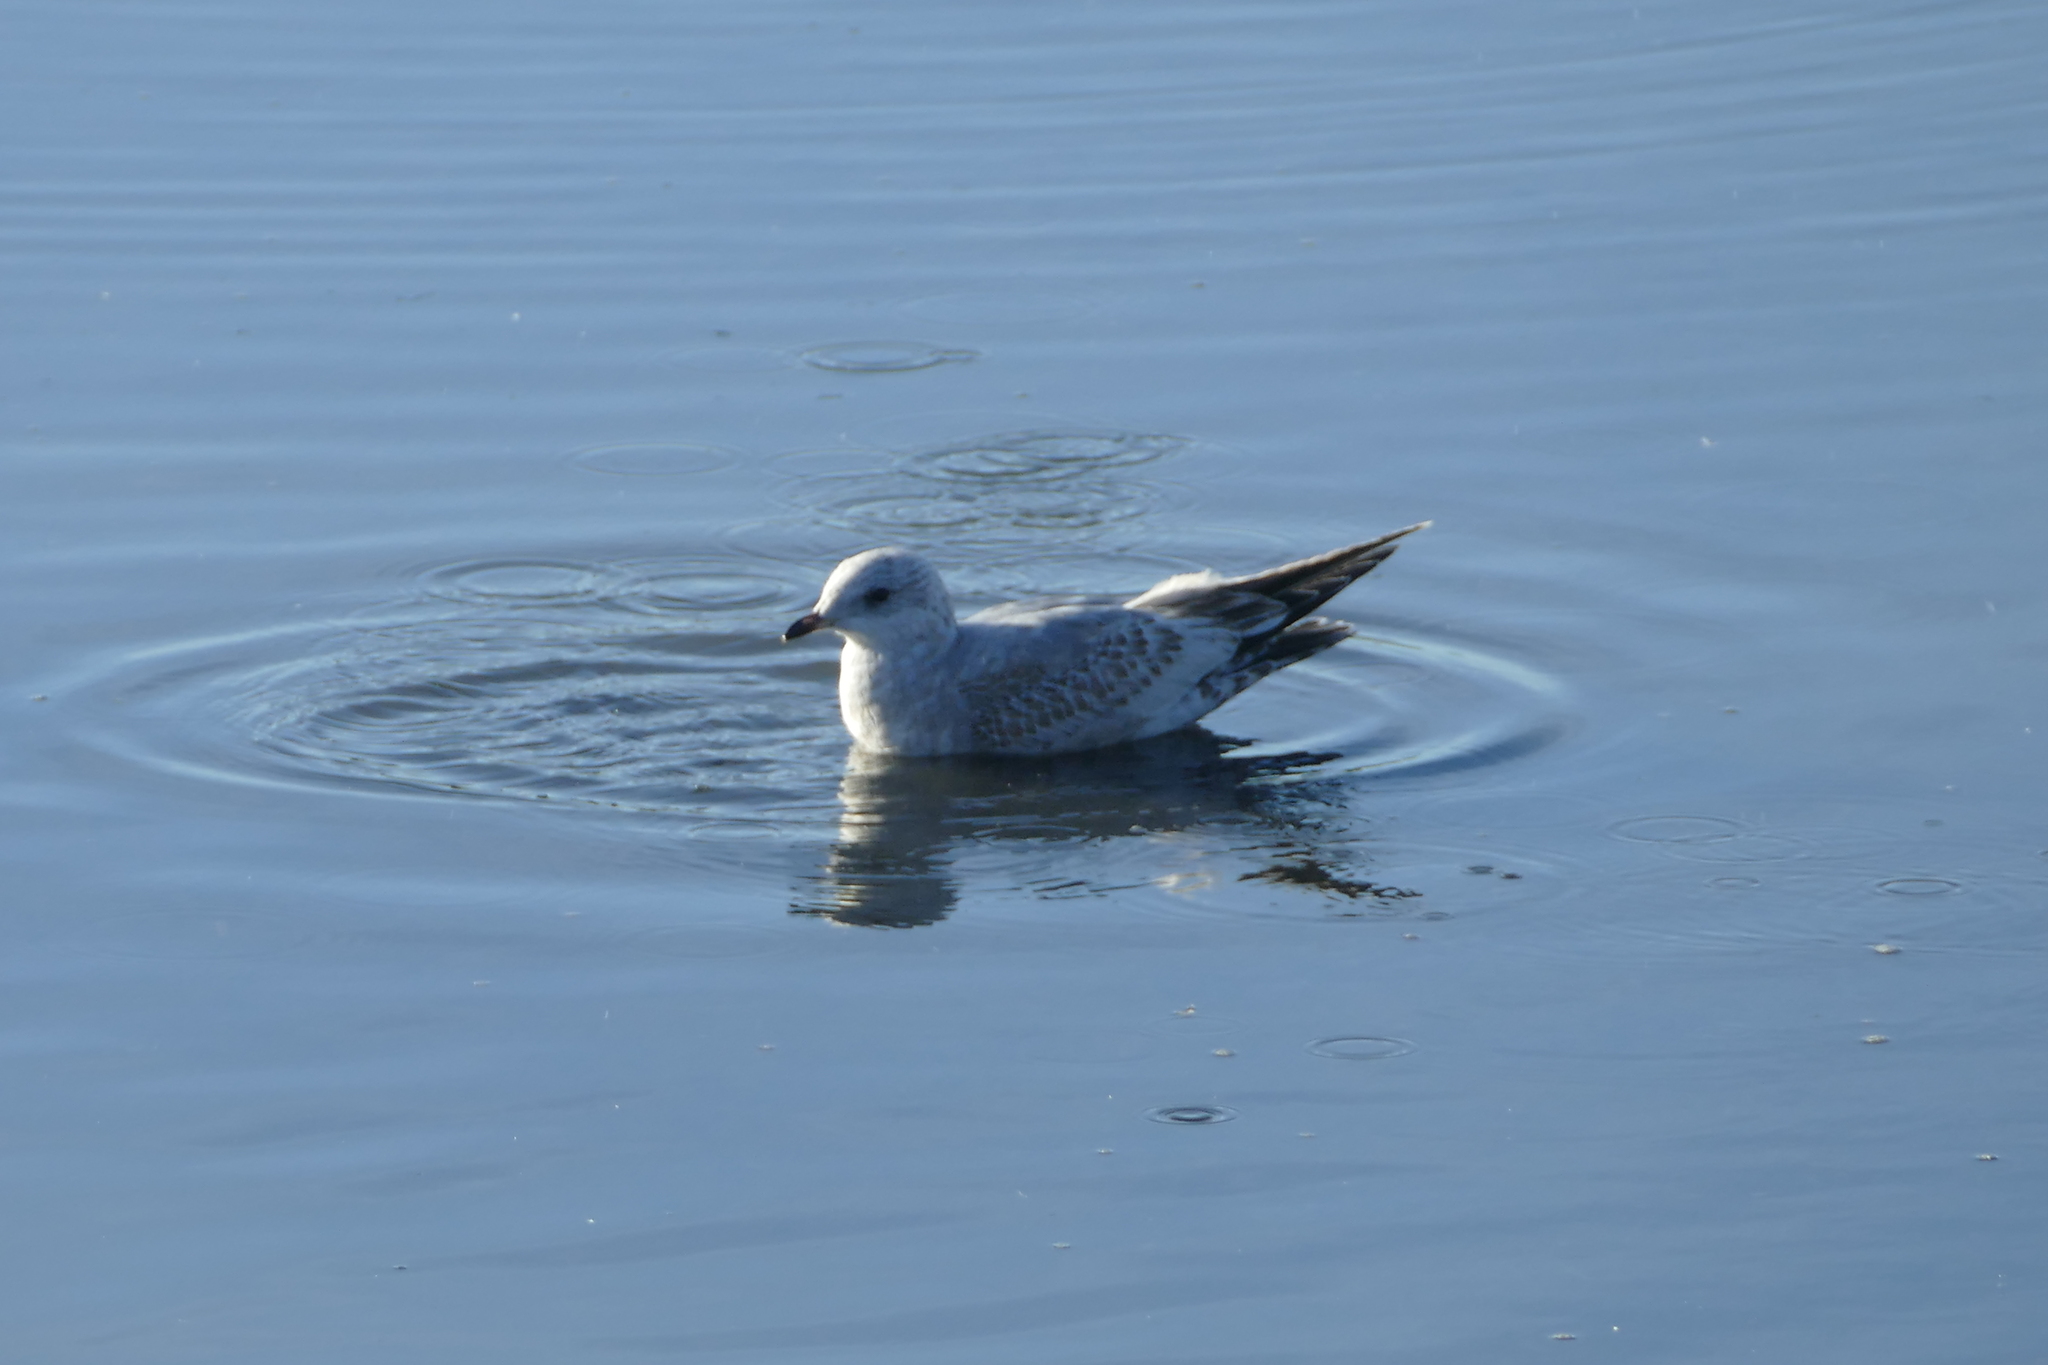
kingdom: Animalia
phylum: Chordata
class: Aves
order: Charadriiformes
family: Laridae
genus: Larus
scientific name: Larus brachyrhynchus
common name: Short-billed gull
